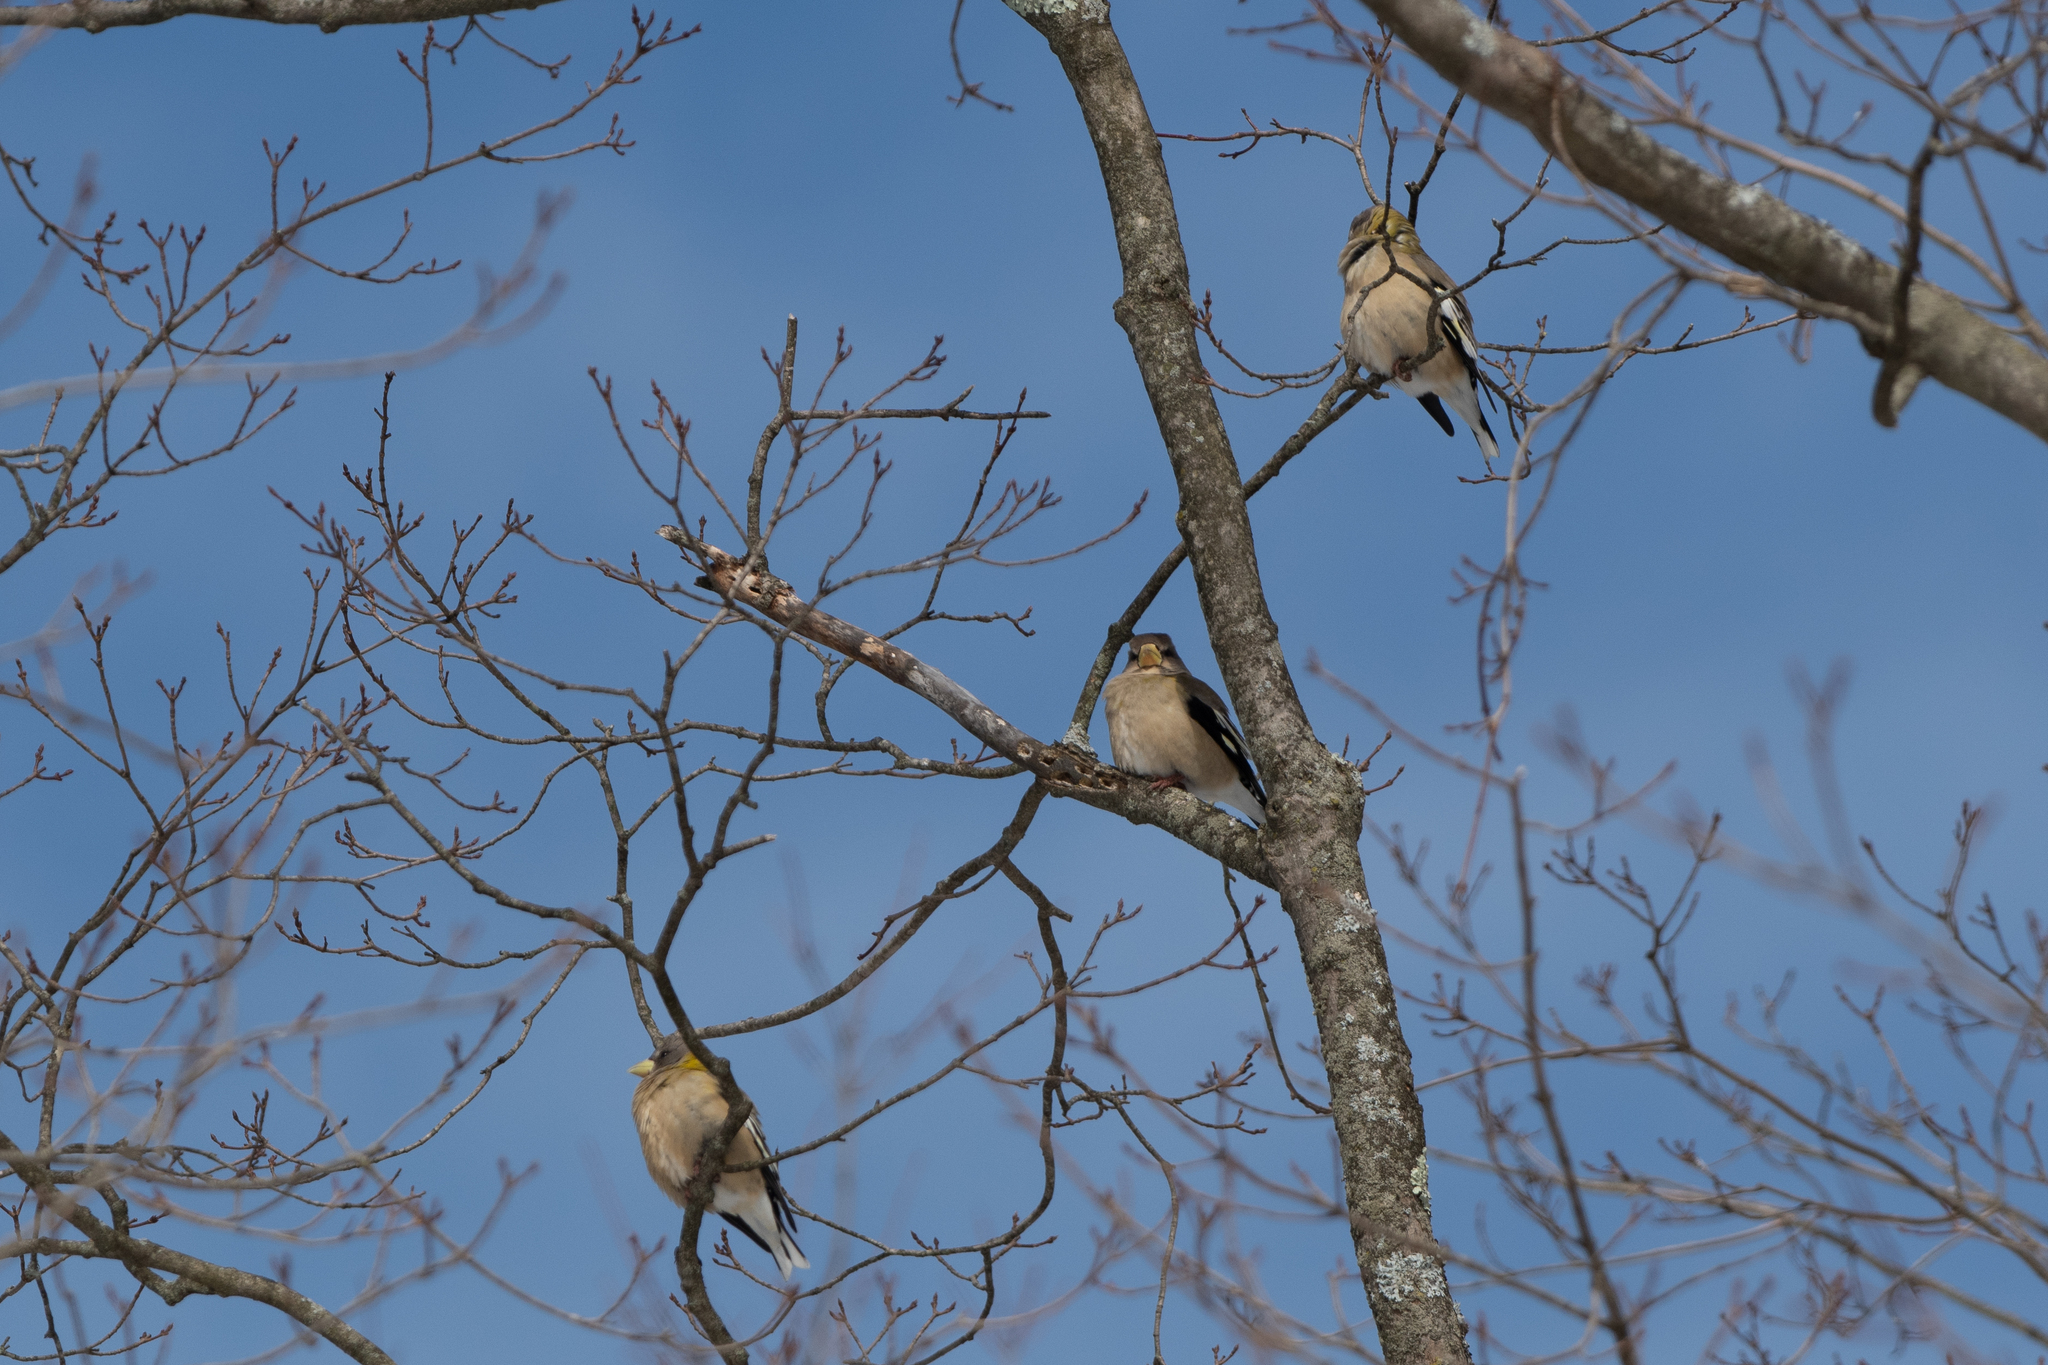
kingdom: Animalia
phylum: Chordata
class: Aves
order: Passeriformes
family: Fringillidae
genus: Hesperiphona
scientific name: Hesperiphona vespertina
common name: Evening grosbeak
